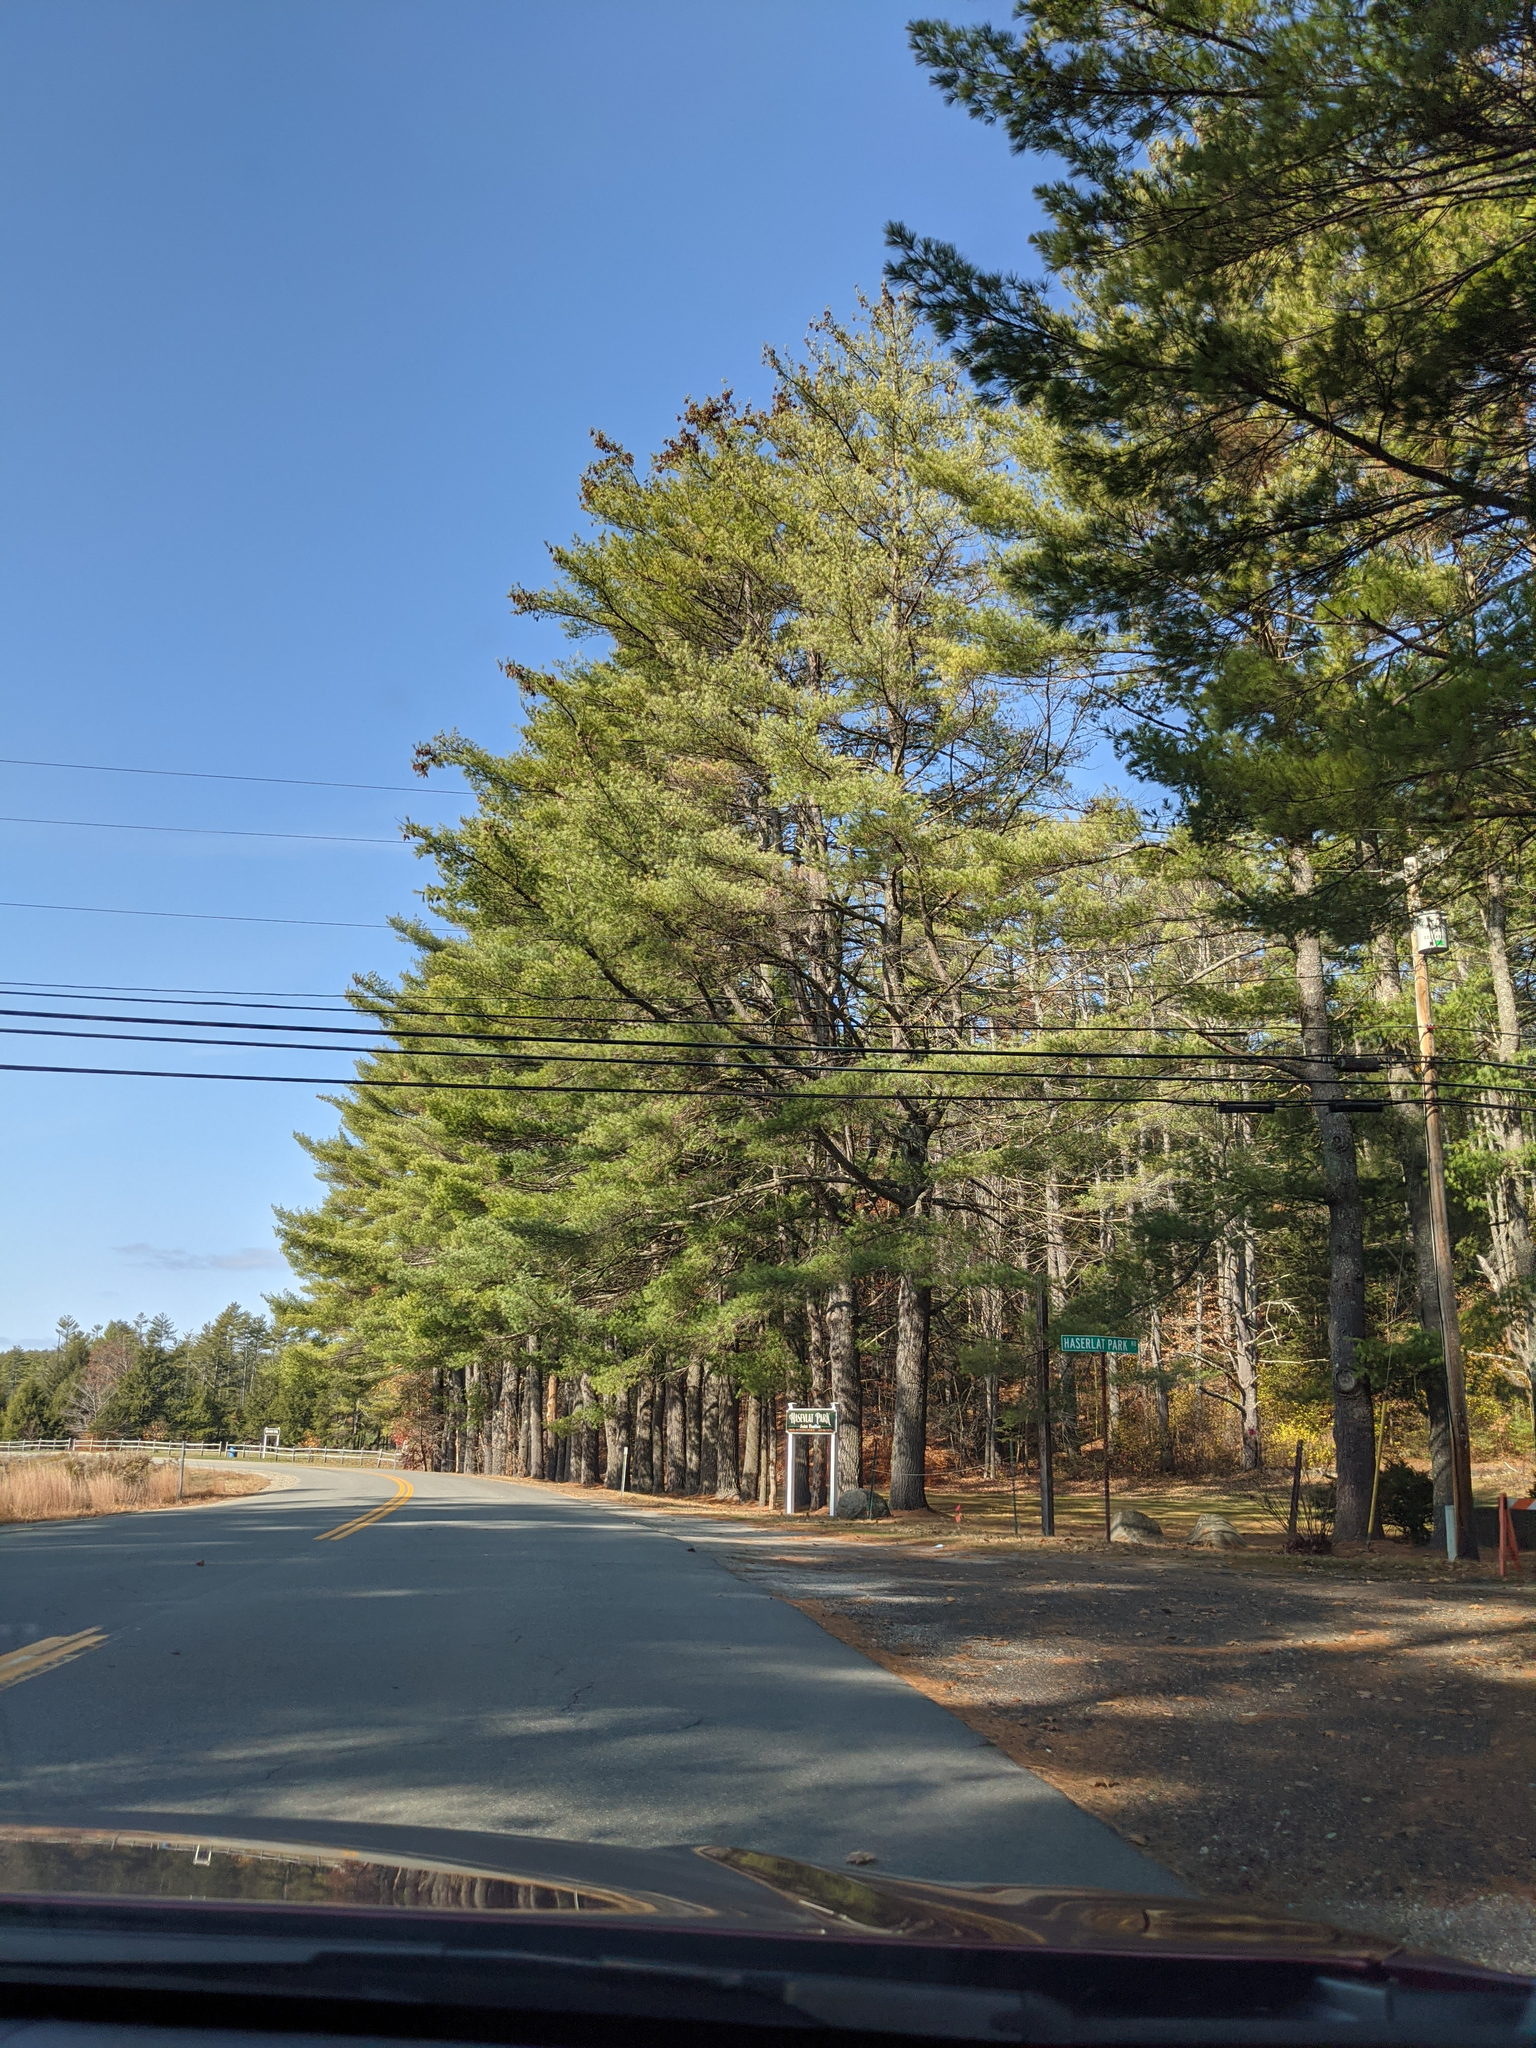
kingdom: Plantae
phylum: Tracheophyta
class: Pinopsida
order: Pinales
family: Pinaceae
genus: Pinus
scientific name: Pinus strobus
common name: Weymouth pine
